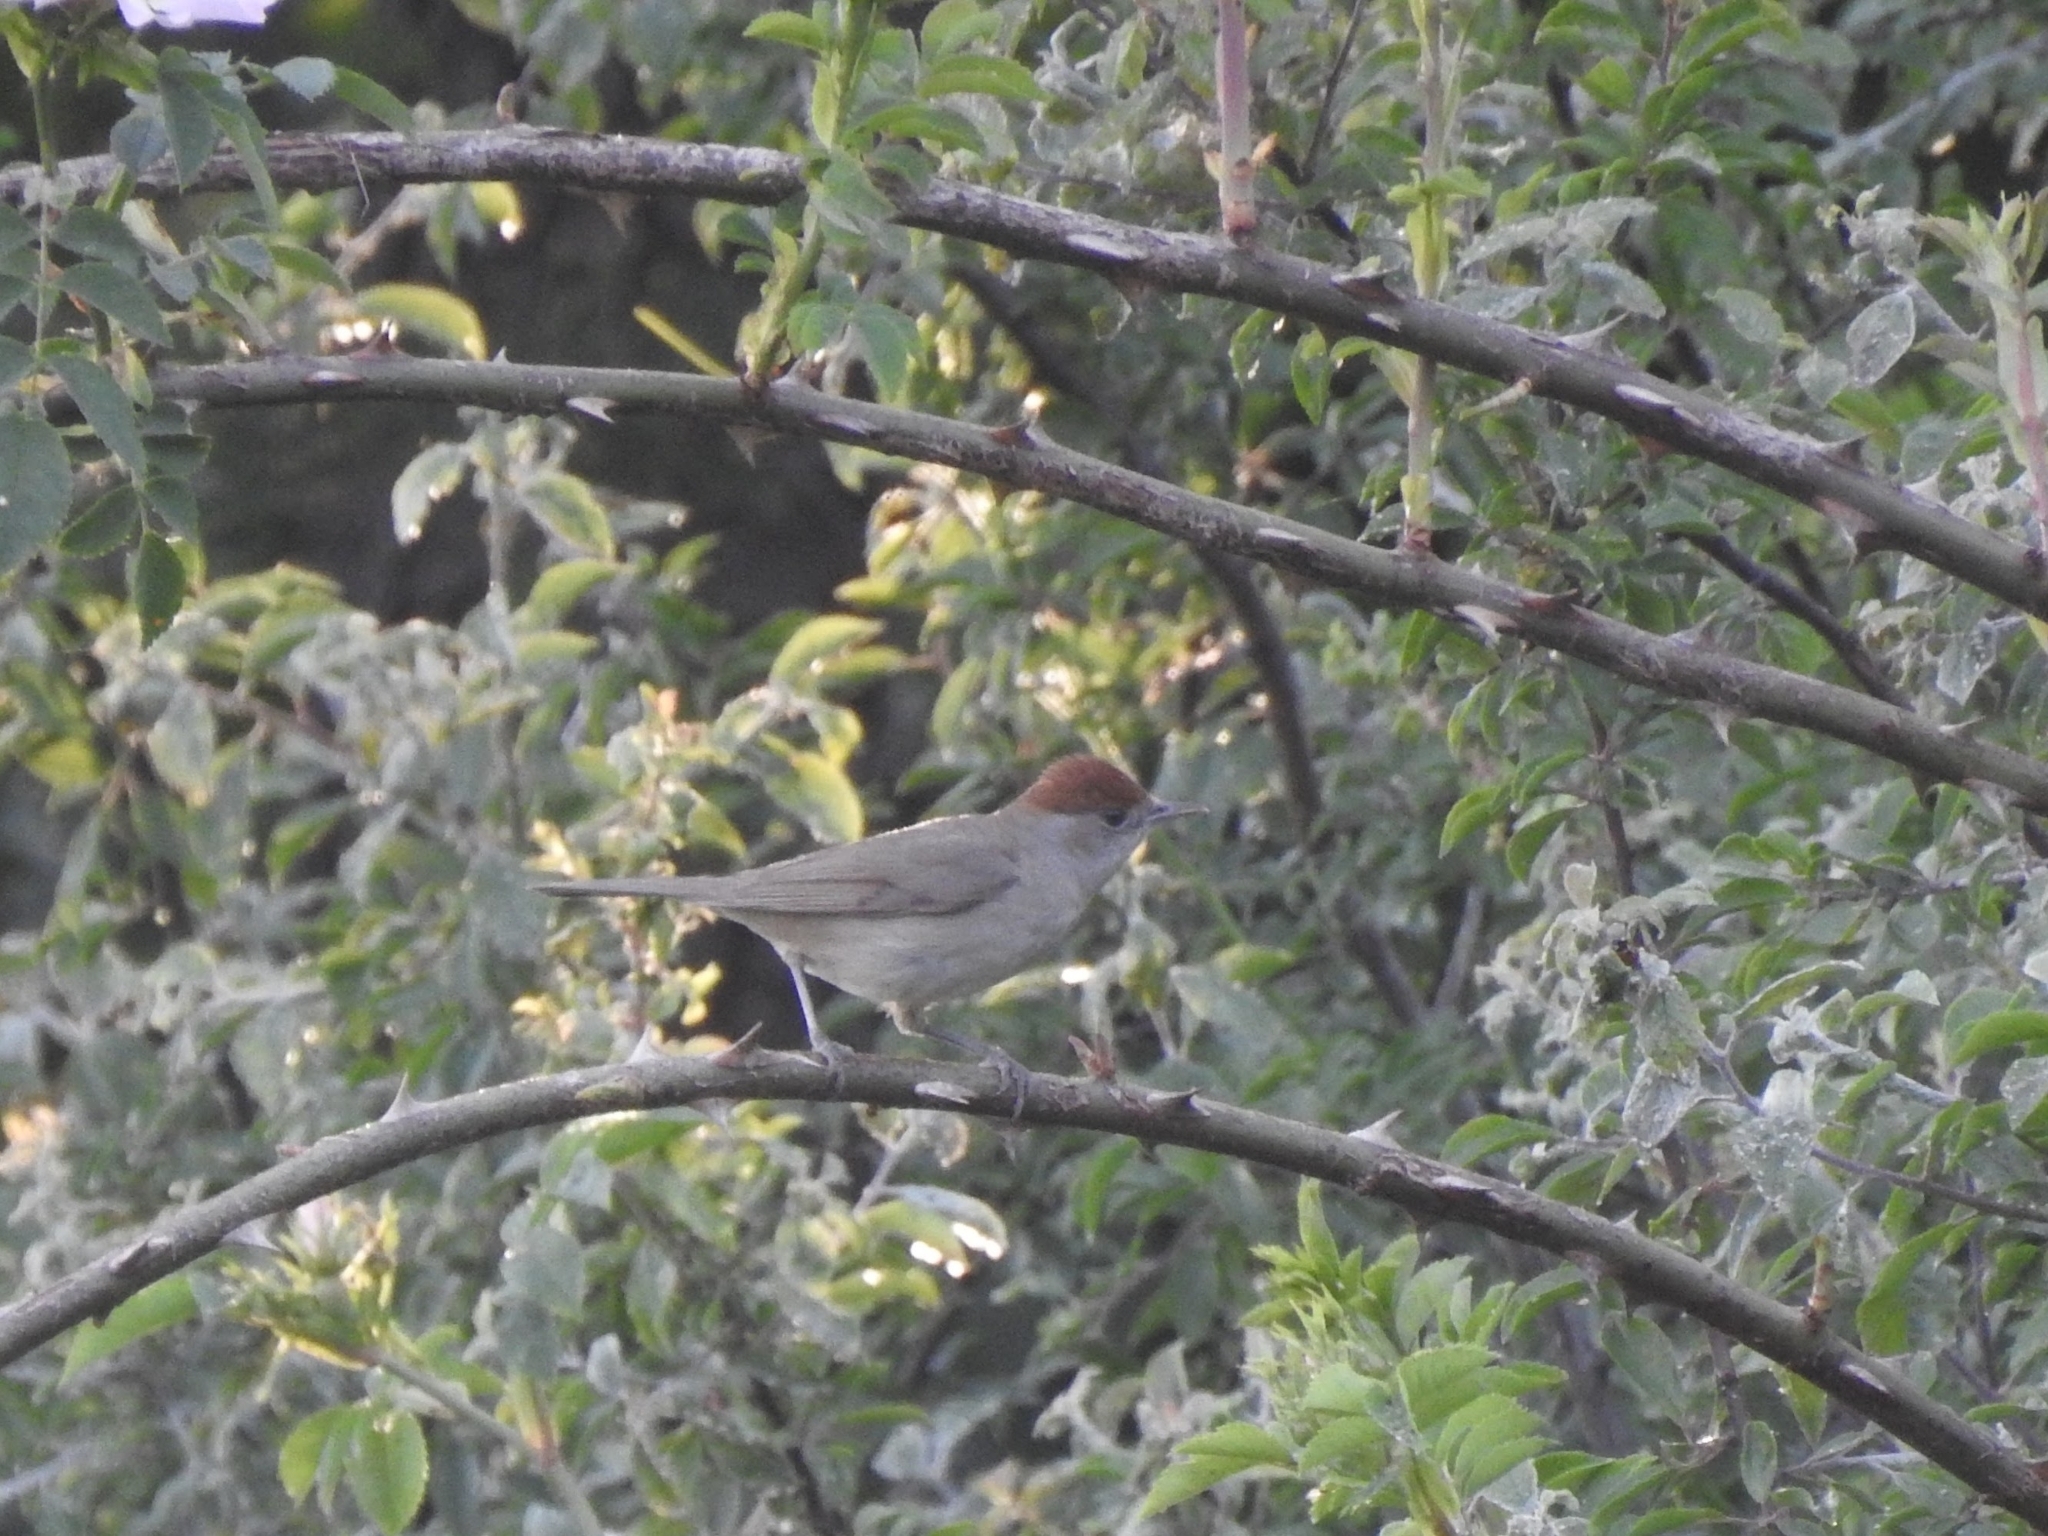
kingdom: Animalia
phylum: Chordata
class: Aves
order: Passeriformes
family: Sylviidae
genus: Sylvia
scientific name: Sylvia atricapilla
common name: Eurasian blackcap
